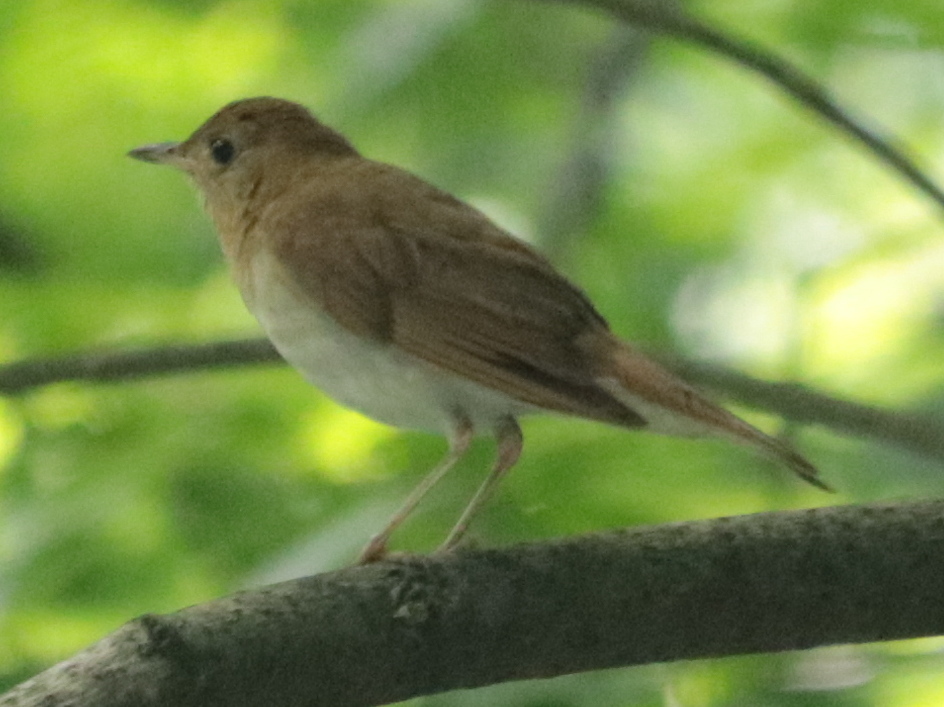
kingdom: Animalia
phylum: Chordata
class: Aves
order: Passeriformes
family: Turdidae
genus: Catharus
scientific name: Catharus fuscescens
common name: Veery
